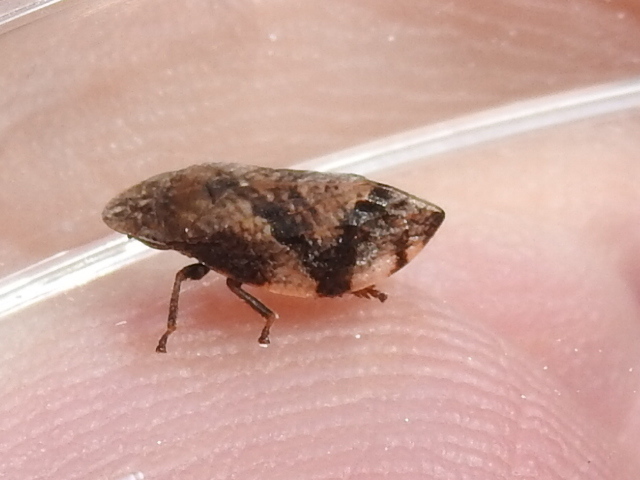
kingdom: Animalia
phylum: Arthropoda
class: Insecta
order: Hemiptera
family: Aphrophoridae
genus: Lepyronia
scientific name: Lepyronia quadrangularis
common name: Diamond-backed spittlebug
